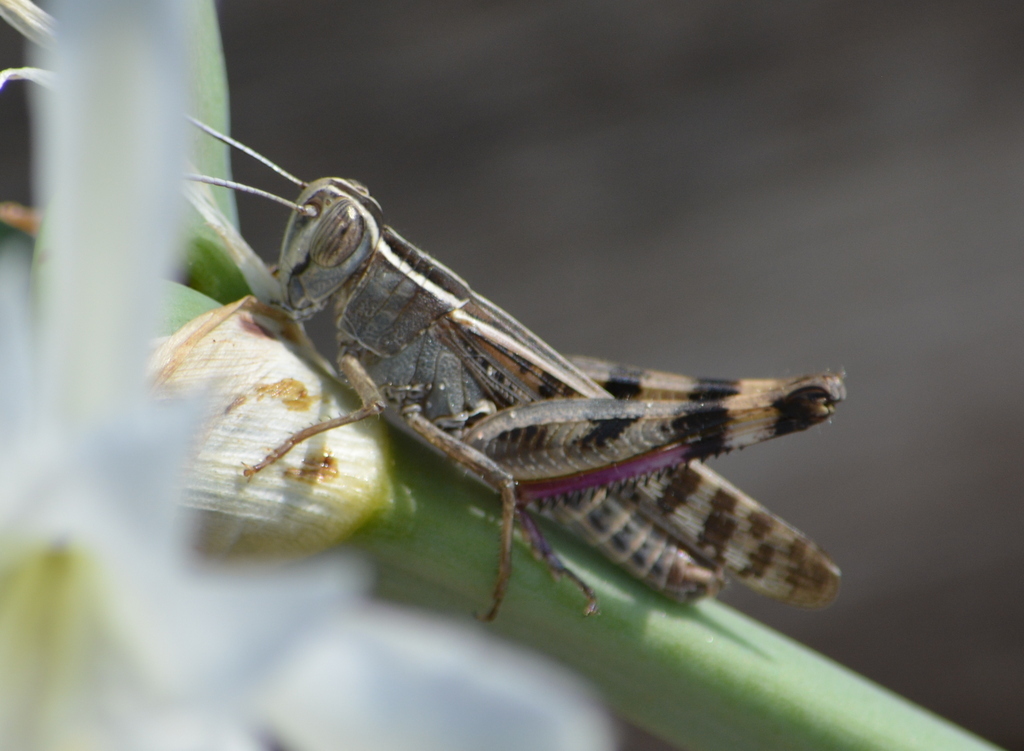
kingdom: Animalia
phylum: Arthropoda
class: Insecta
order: Orthoptera
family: Acrididae
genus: Heteracris
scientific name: Heteracris littoralis
